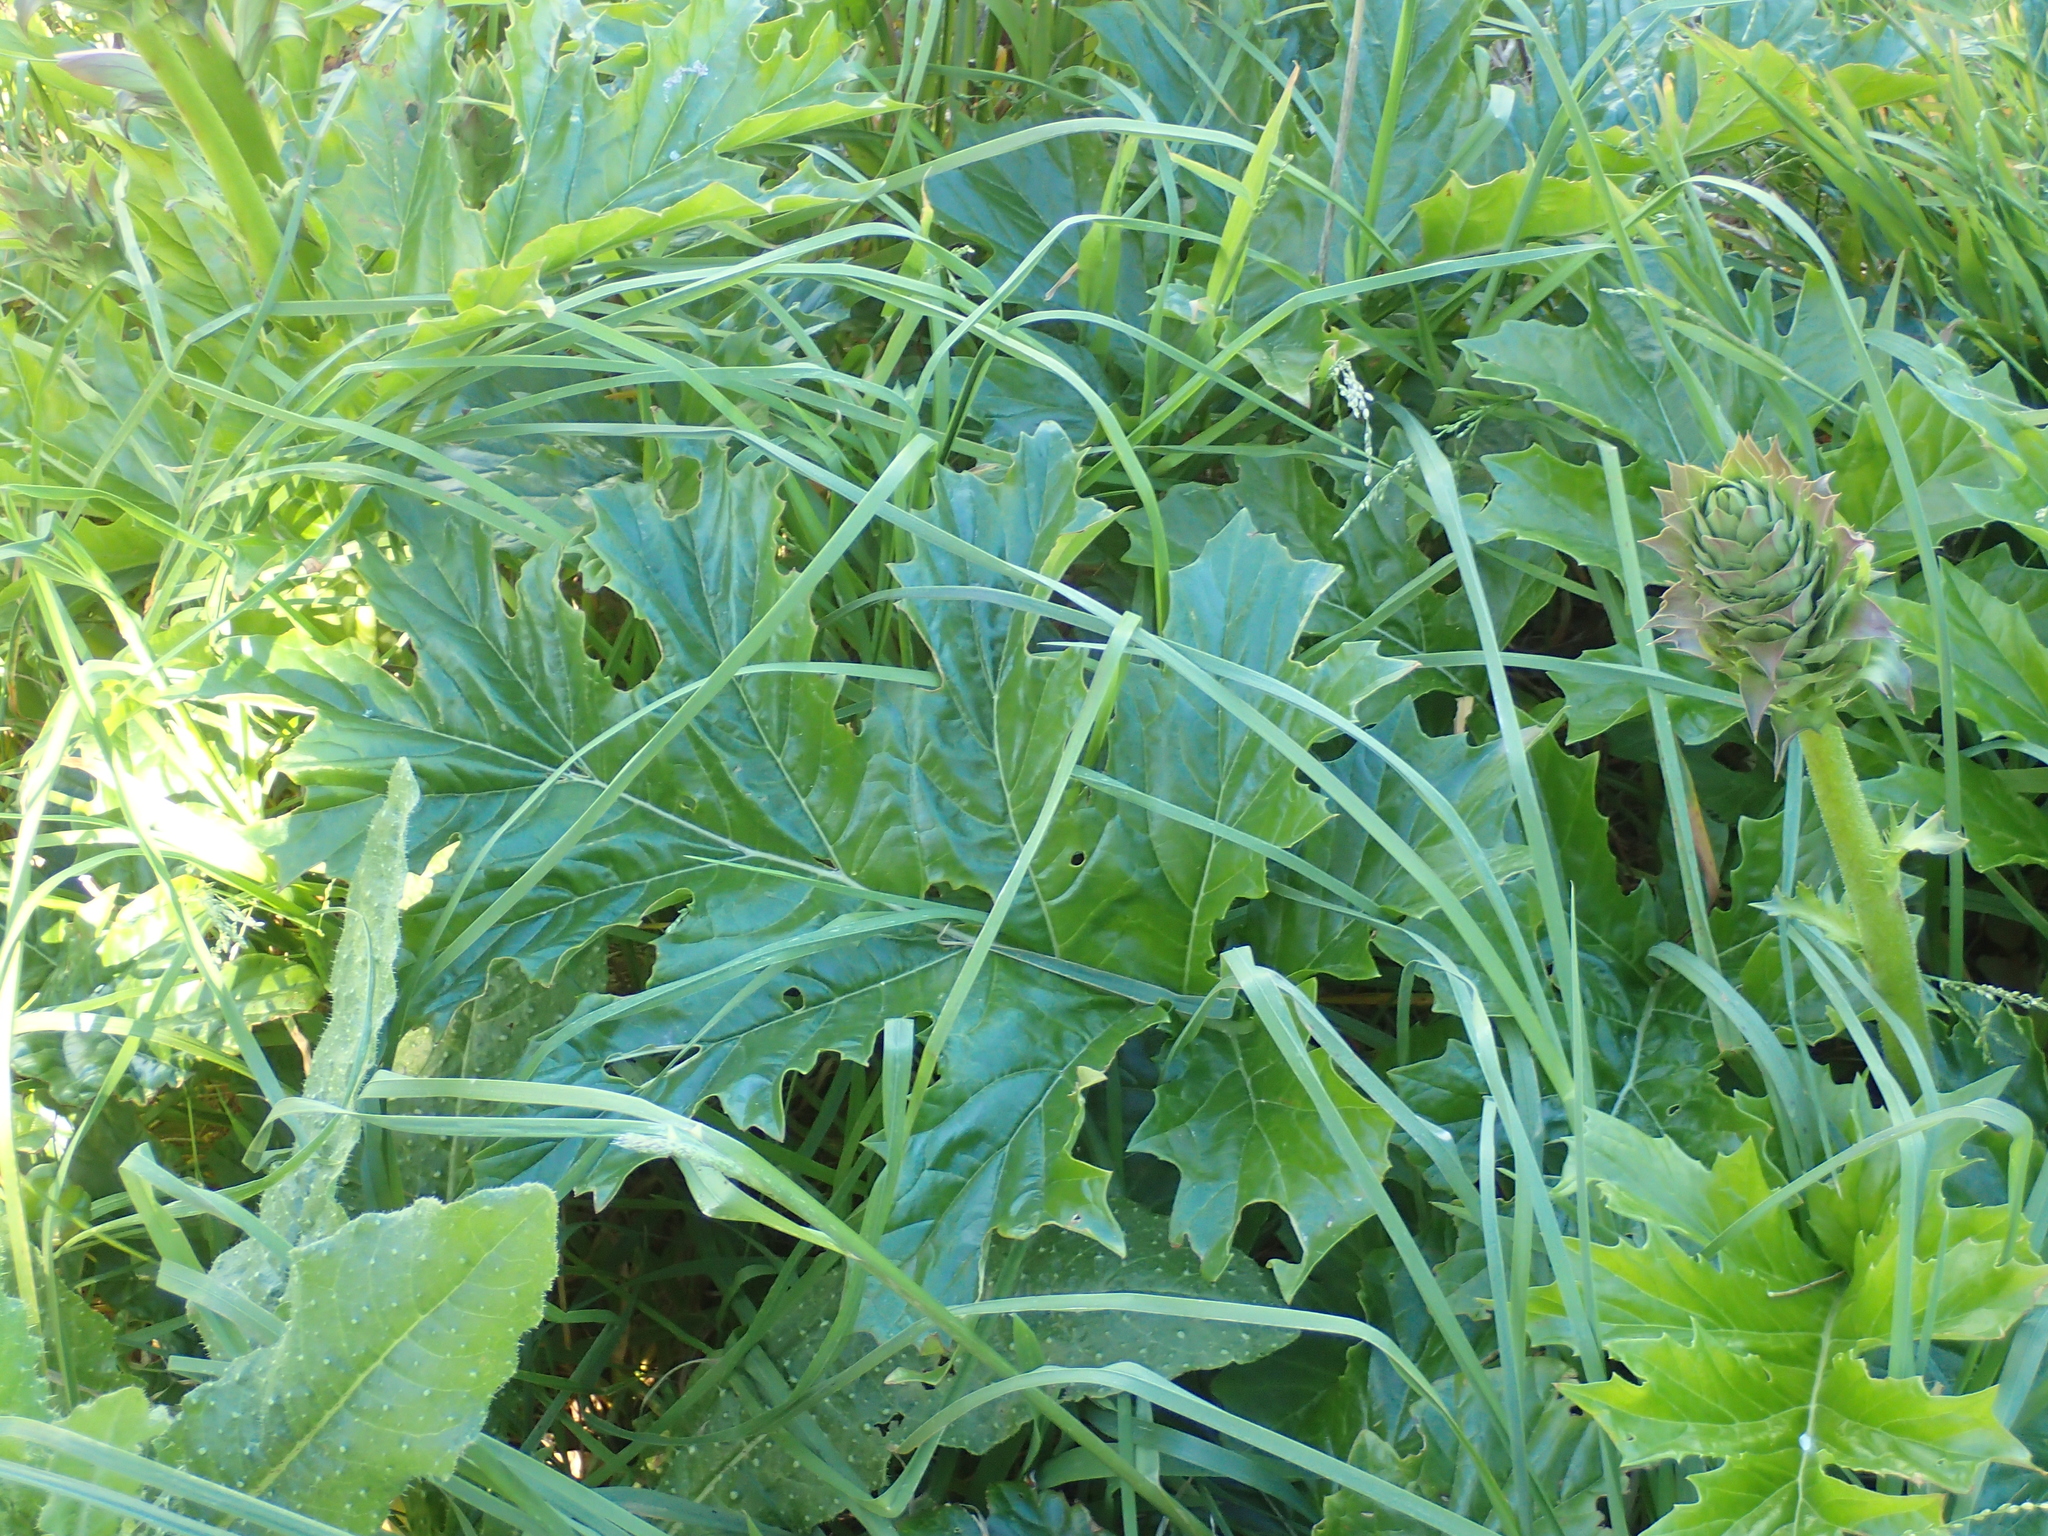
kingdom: Plantae
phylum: Tracheophyta
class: Magnoliopsida
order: Lamiales
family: Acanthaceae
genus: Acanthus
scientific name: Acanthus mollis
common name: Bear's-breech
